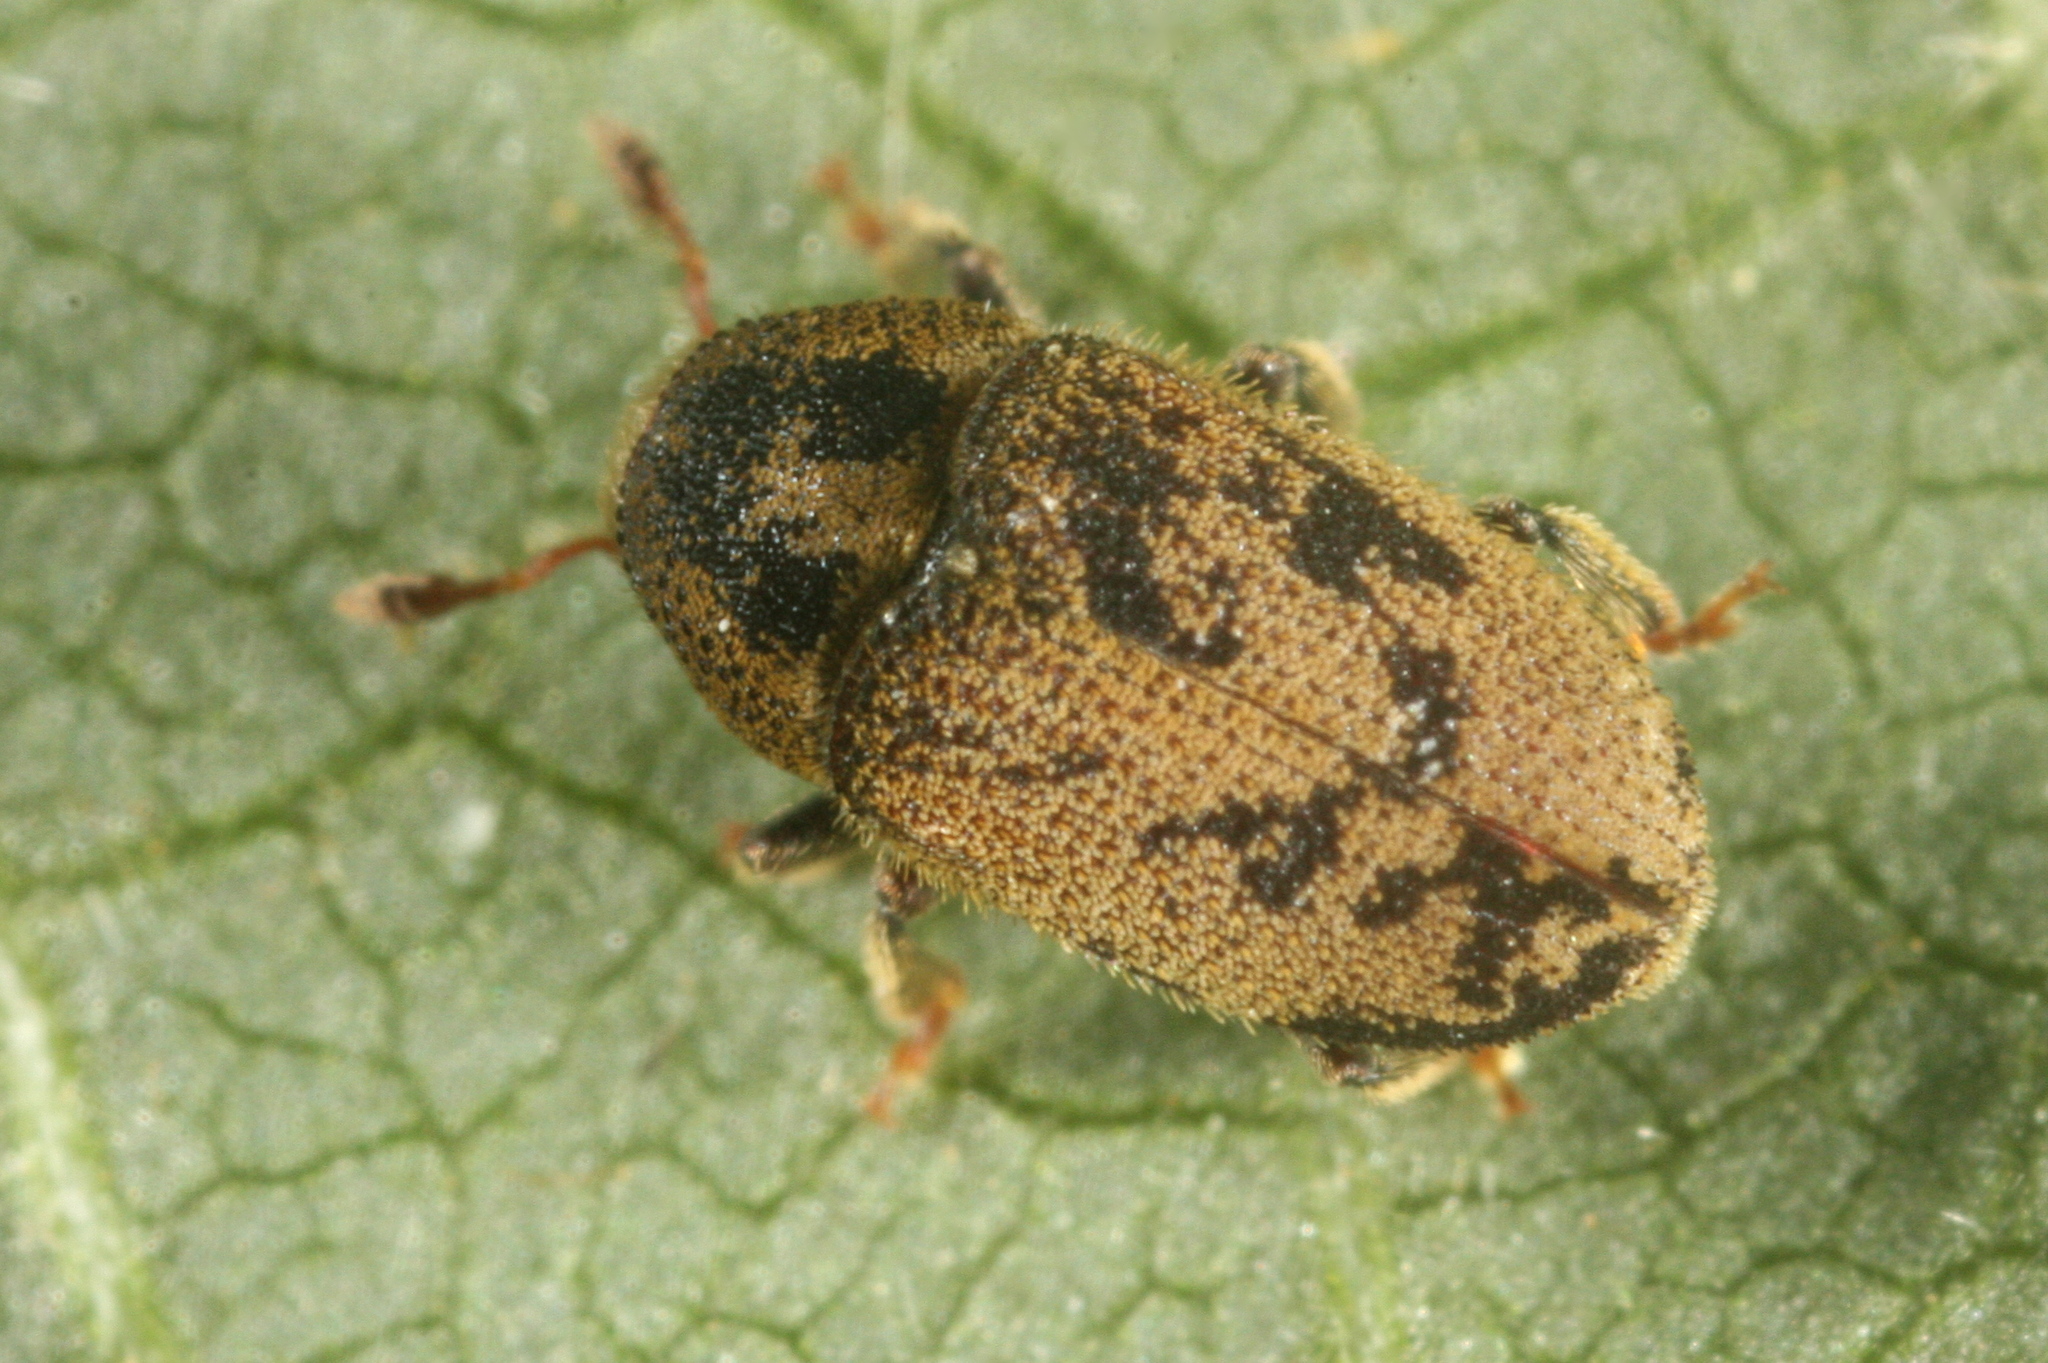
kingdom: Animalia
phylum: Arthropoda
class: Insecta
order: Coleoptera
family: Curculionidae
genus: Hylesinus
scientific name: Hylesinus varius
